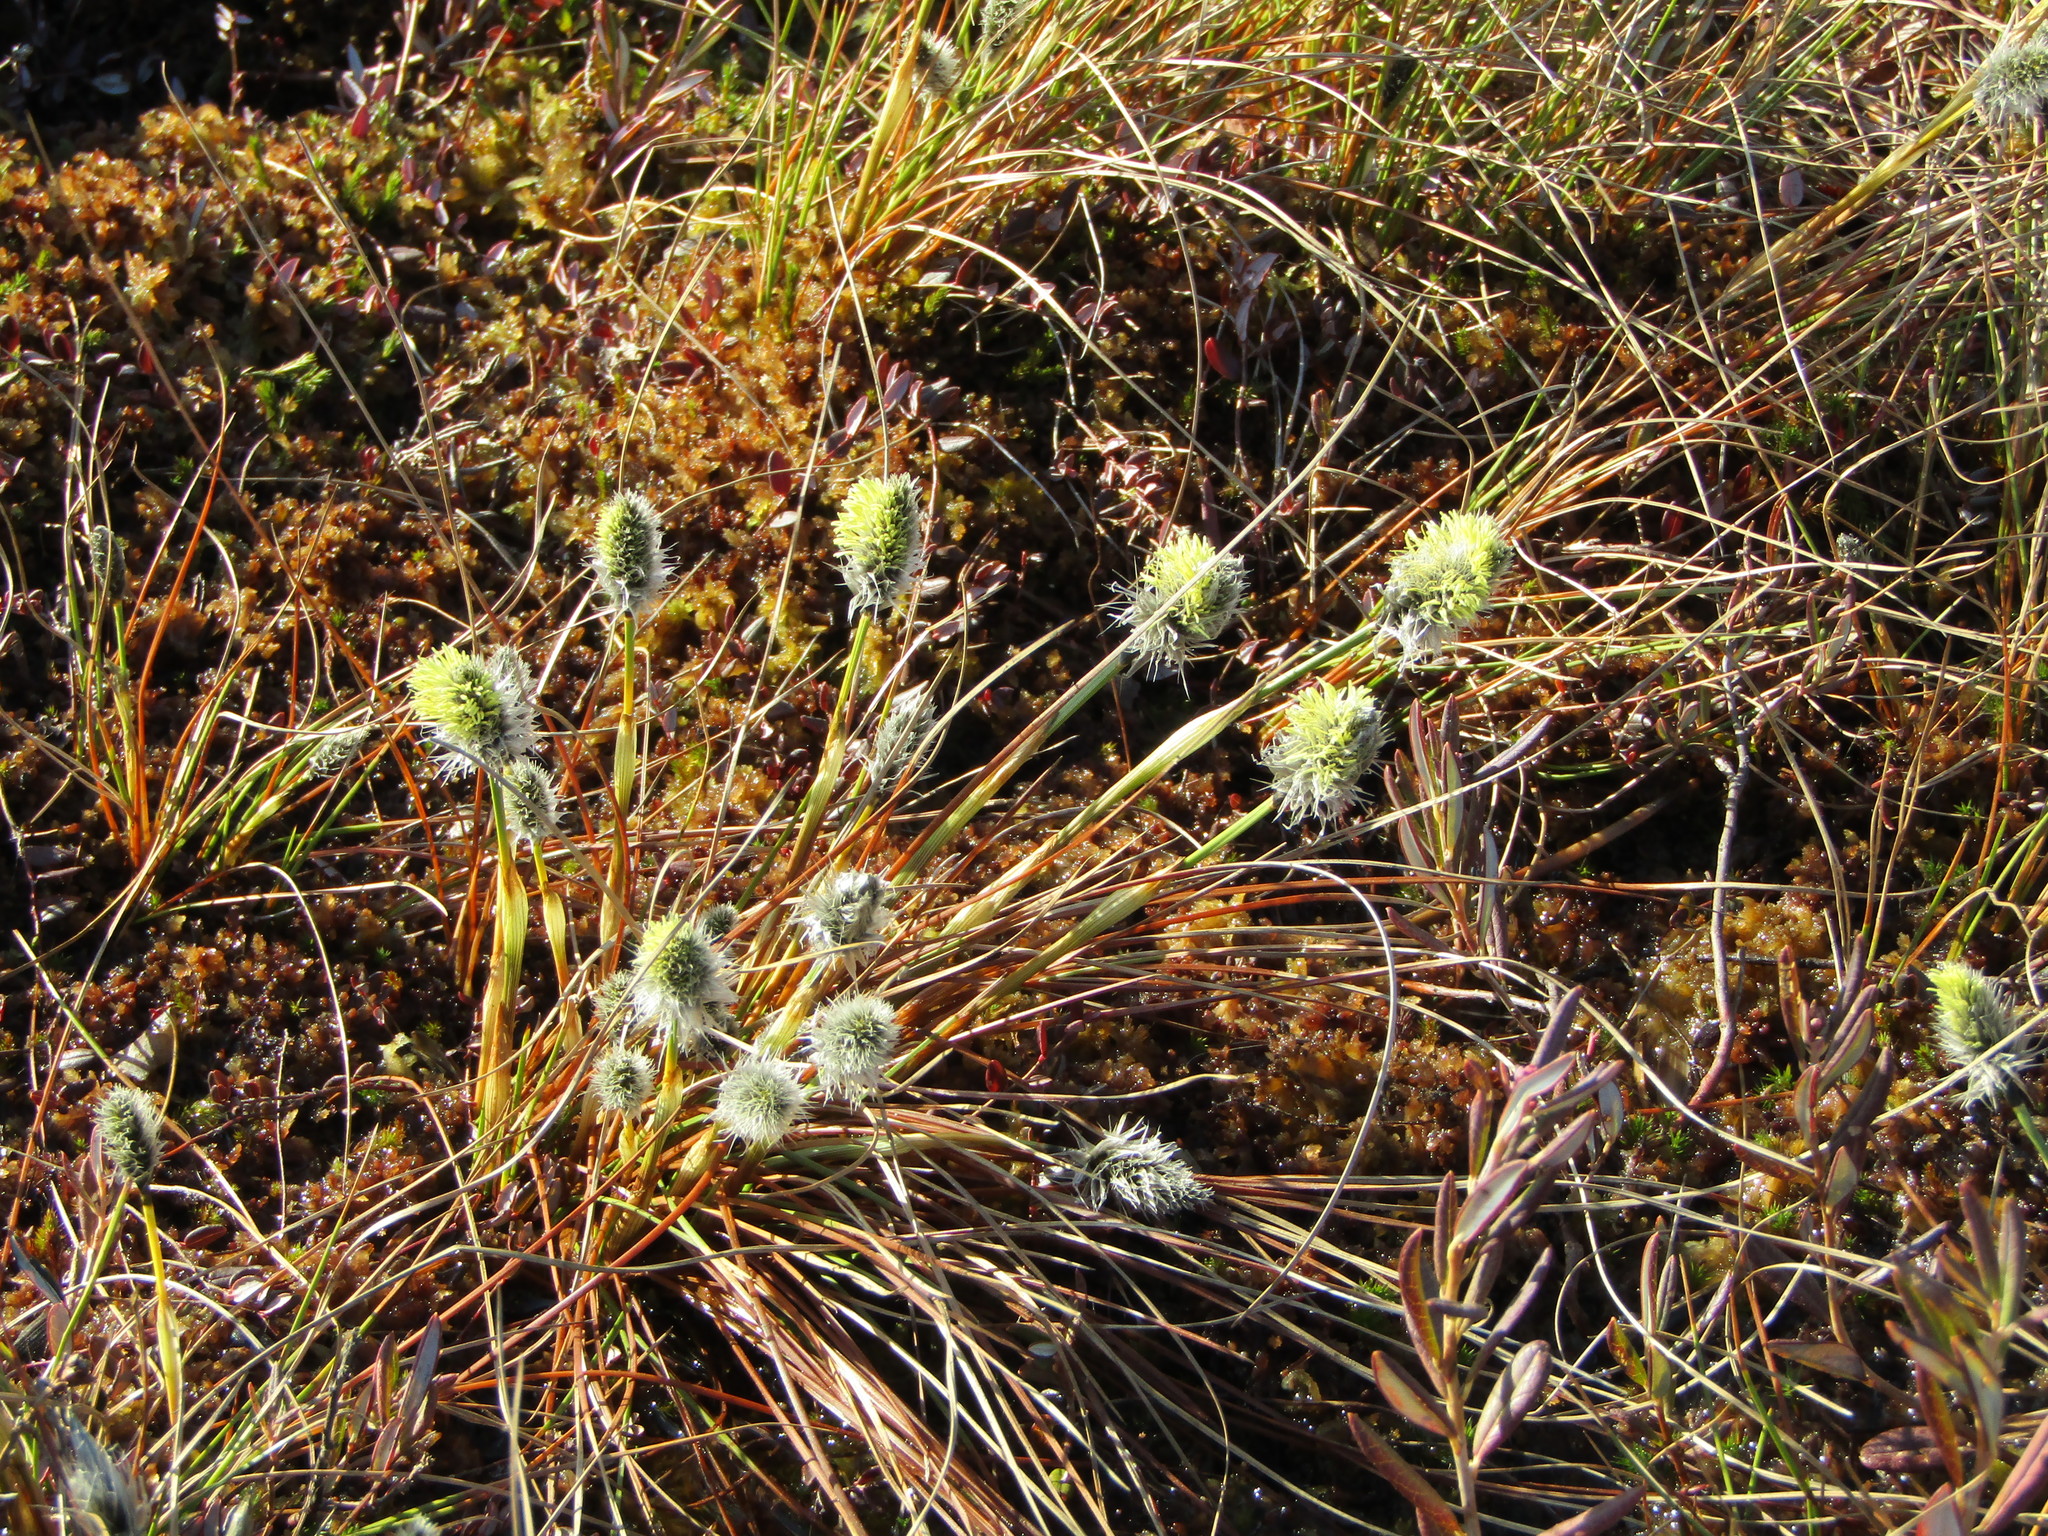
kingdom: Plantae
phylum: Tracheophyta
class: Liliopsida
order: Poales
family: Cyperaceae
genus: Eriophorum
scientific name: Eriophorum vaginatum
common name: Hare's-tail cottongrass
